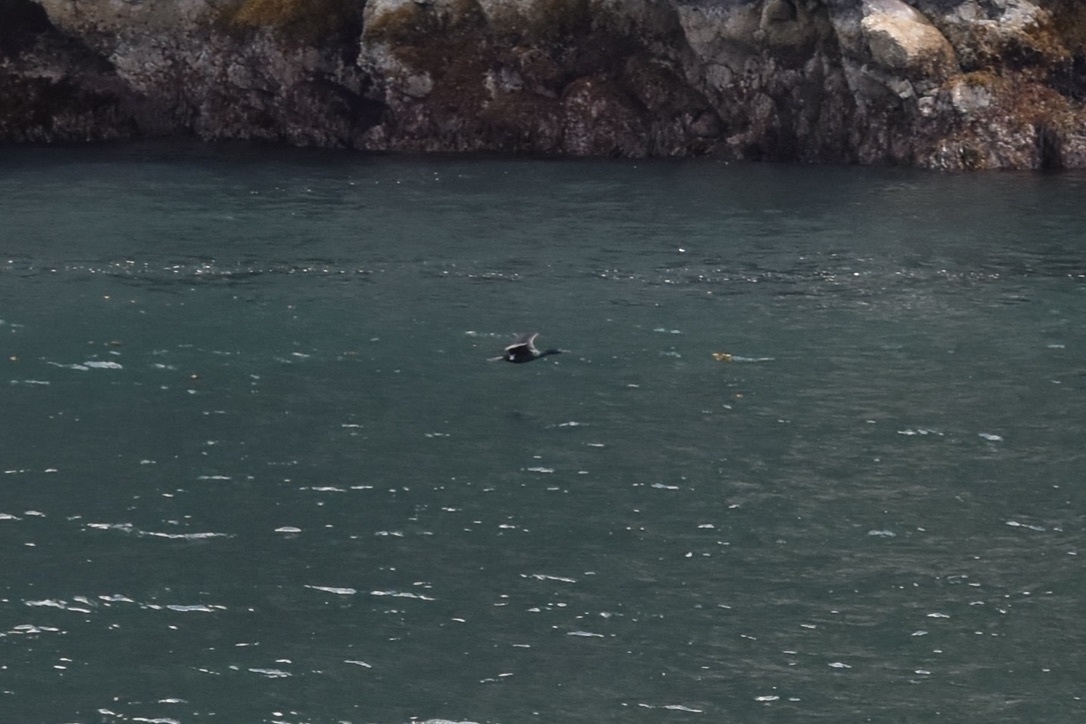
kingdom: Animalia
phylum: Chordata
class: Aves
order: Suliformes
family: Phalacrocoracidae
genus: Phalacrocorax
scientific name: Phalacrocorax pelagicus
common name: Pelagic cormorant
